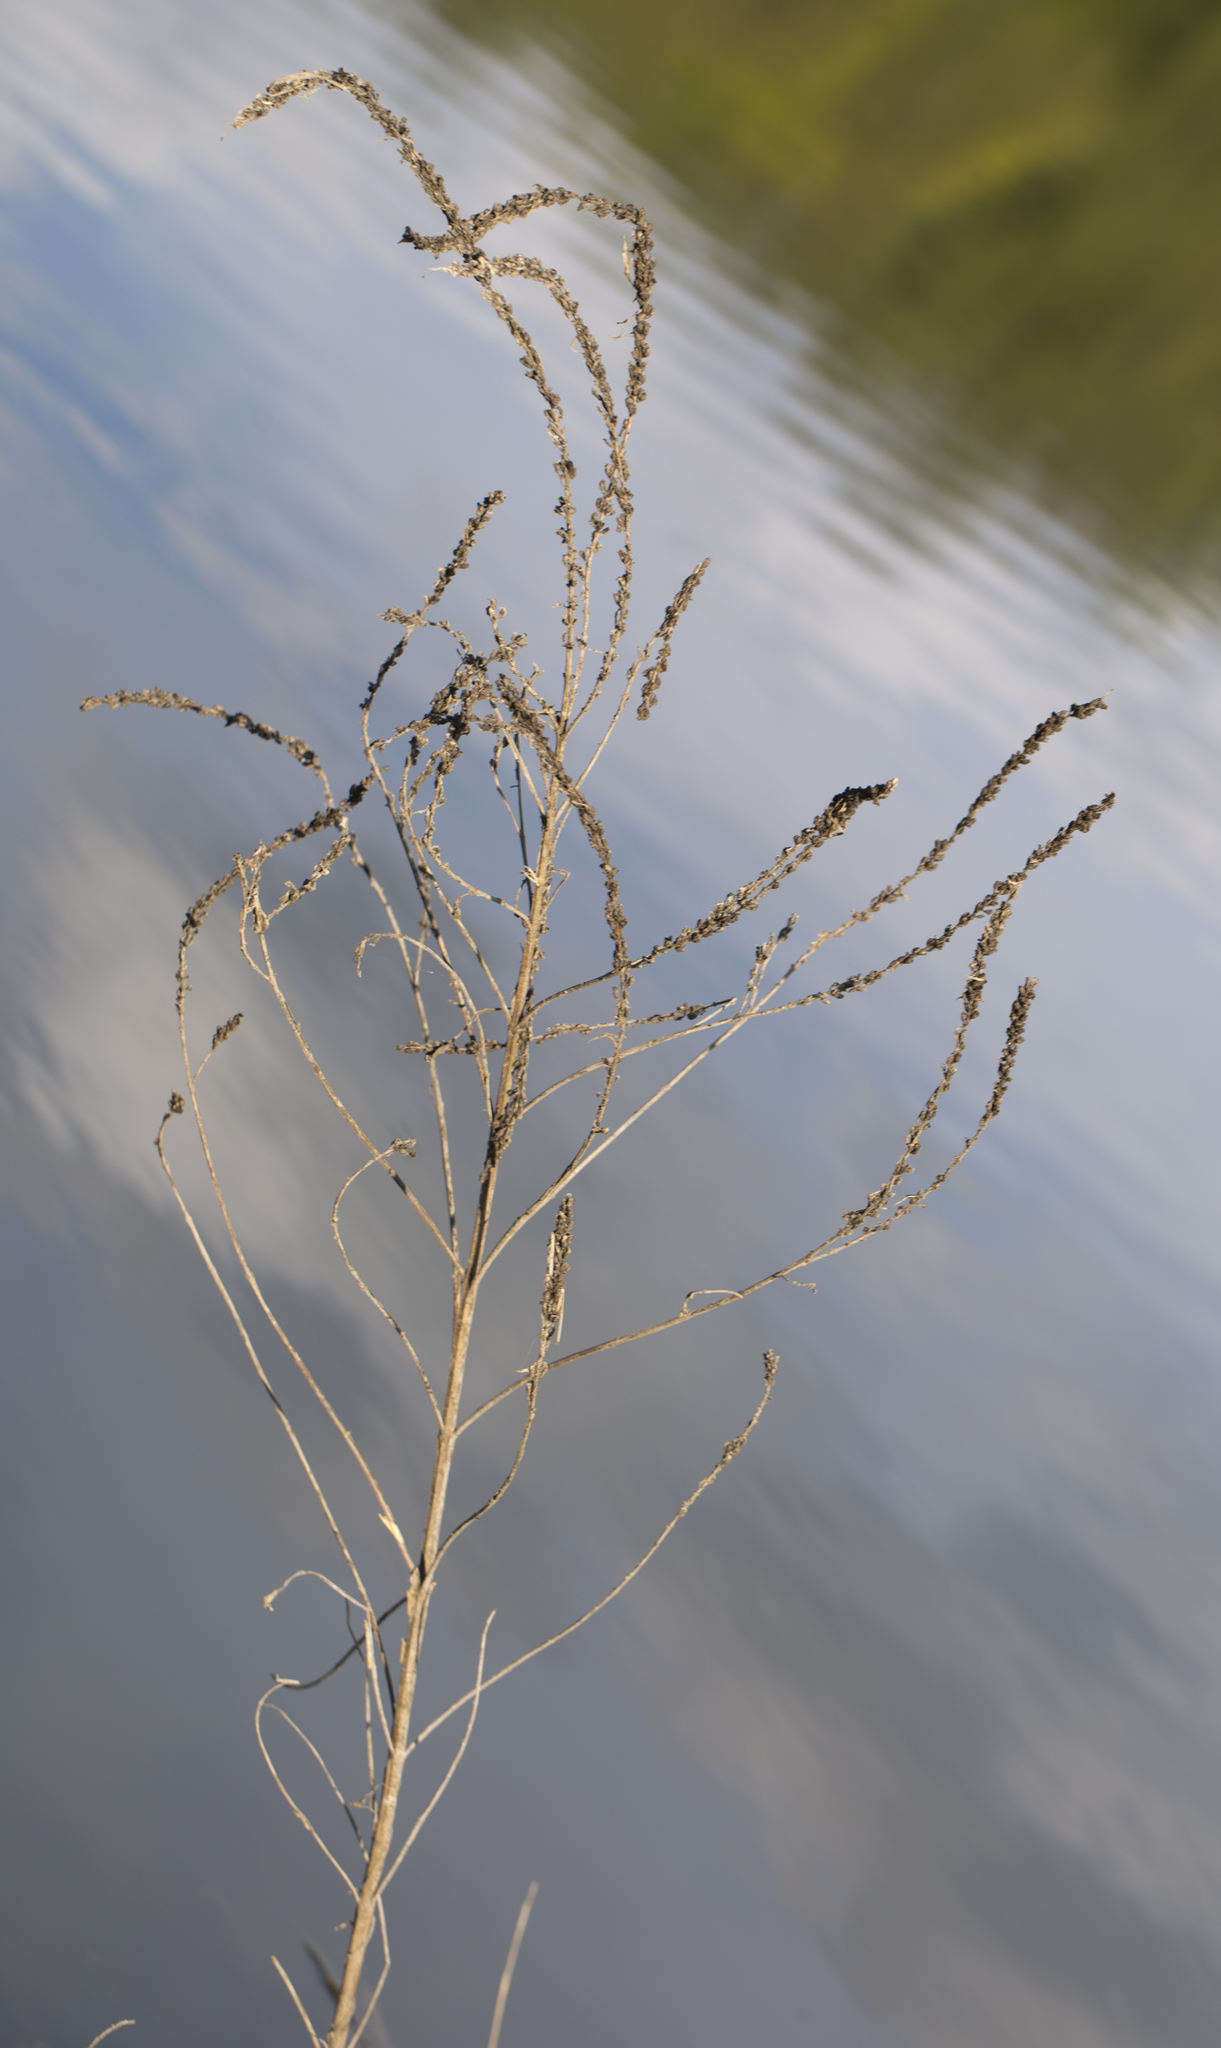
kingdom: Plantae
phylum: Tracheophyta
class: Magnoliopsida
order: Myrtales
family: Lythraceae
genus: Lythrum
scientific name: Lythrum salicaria
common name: Purple loosestrife
